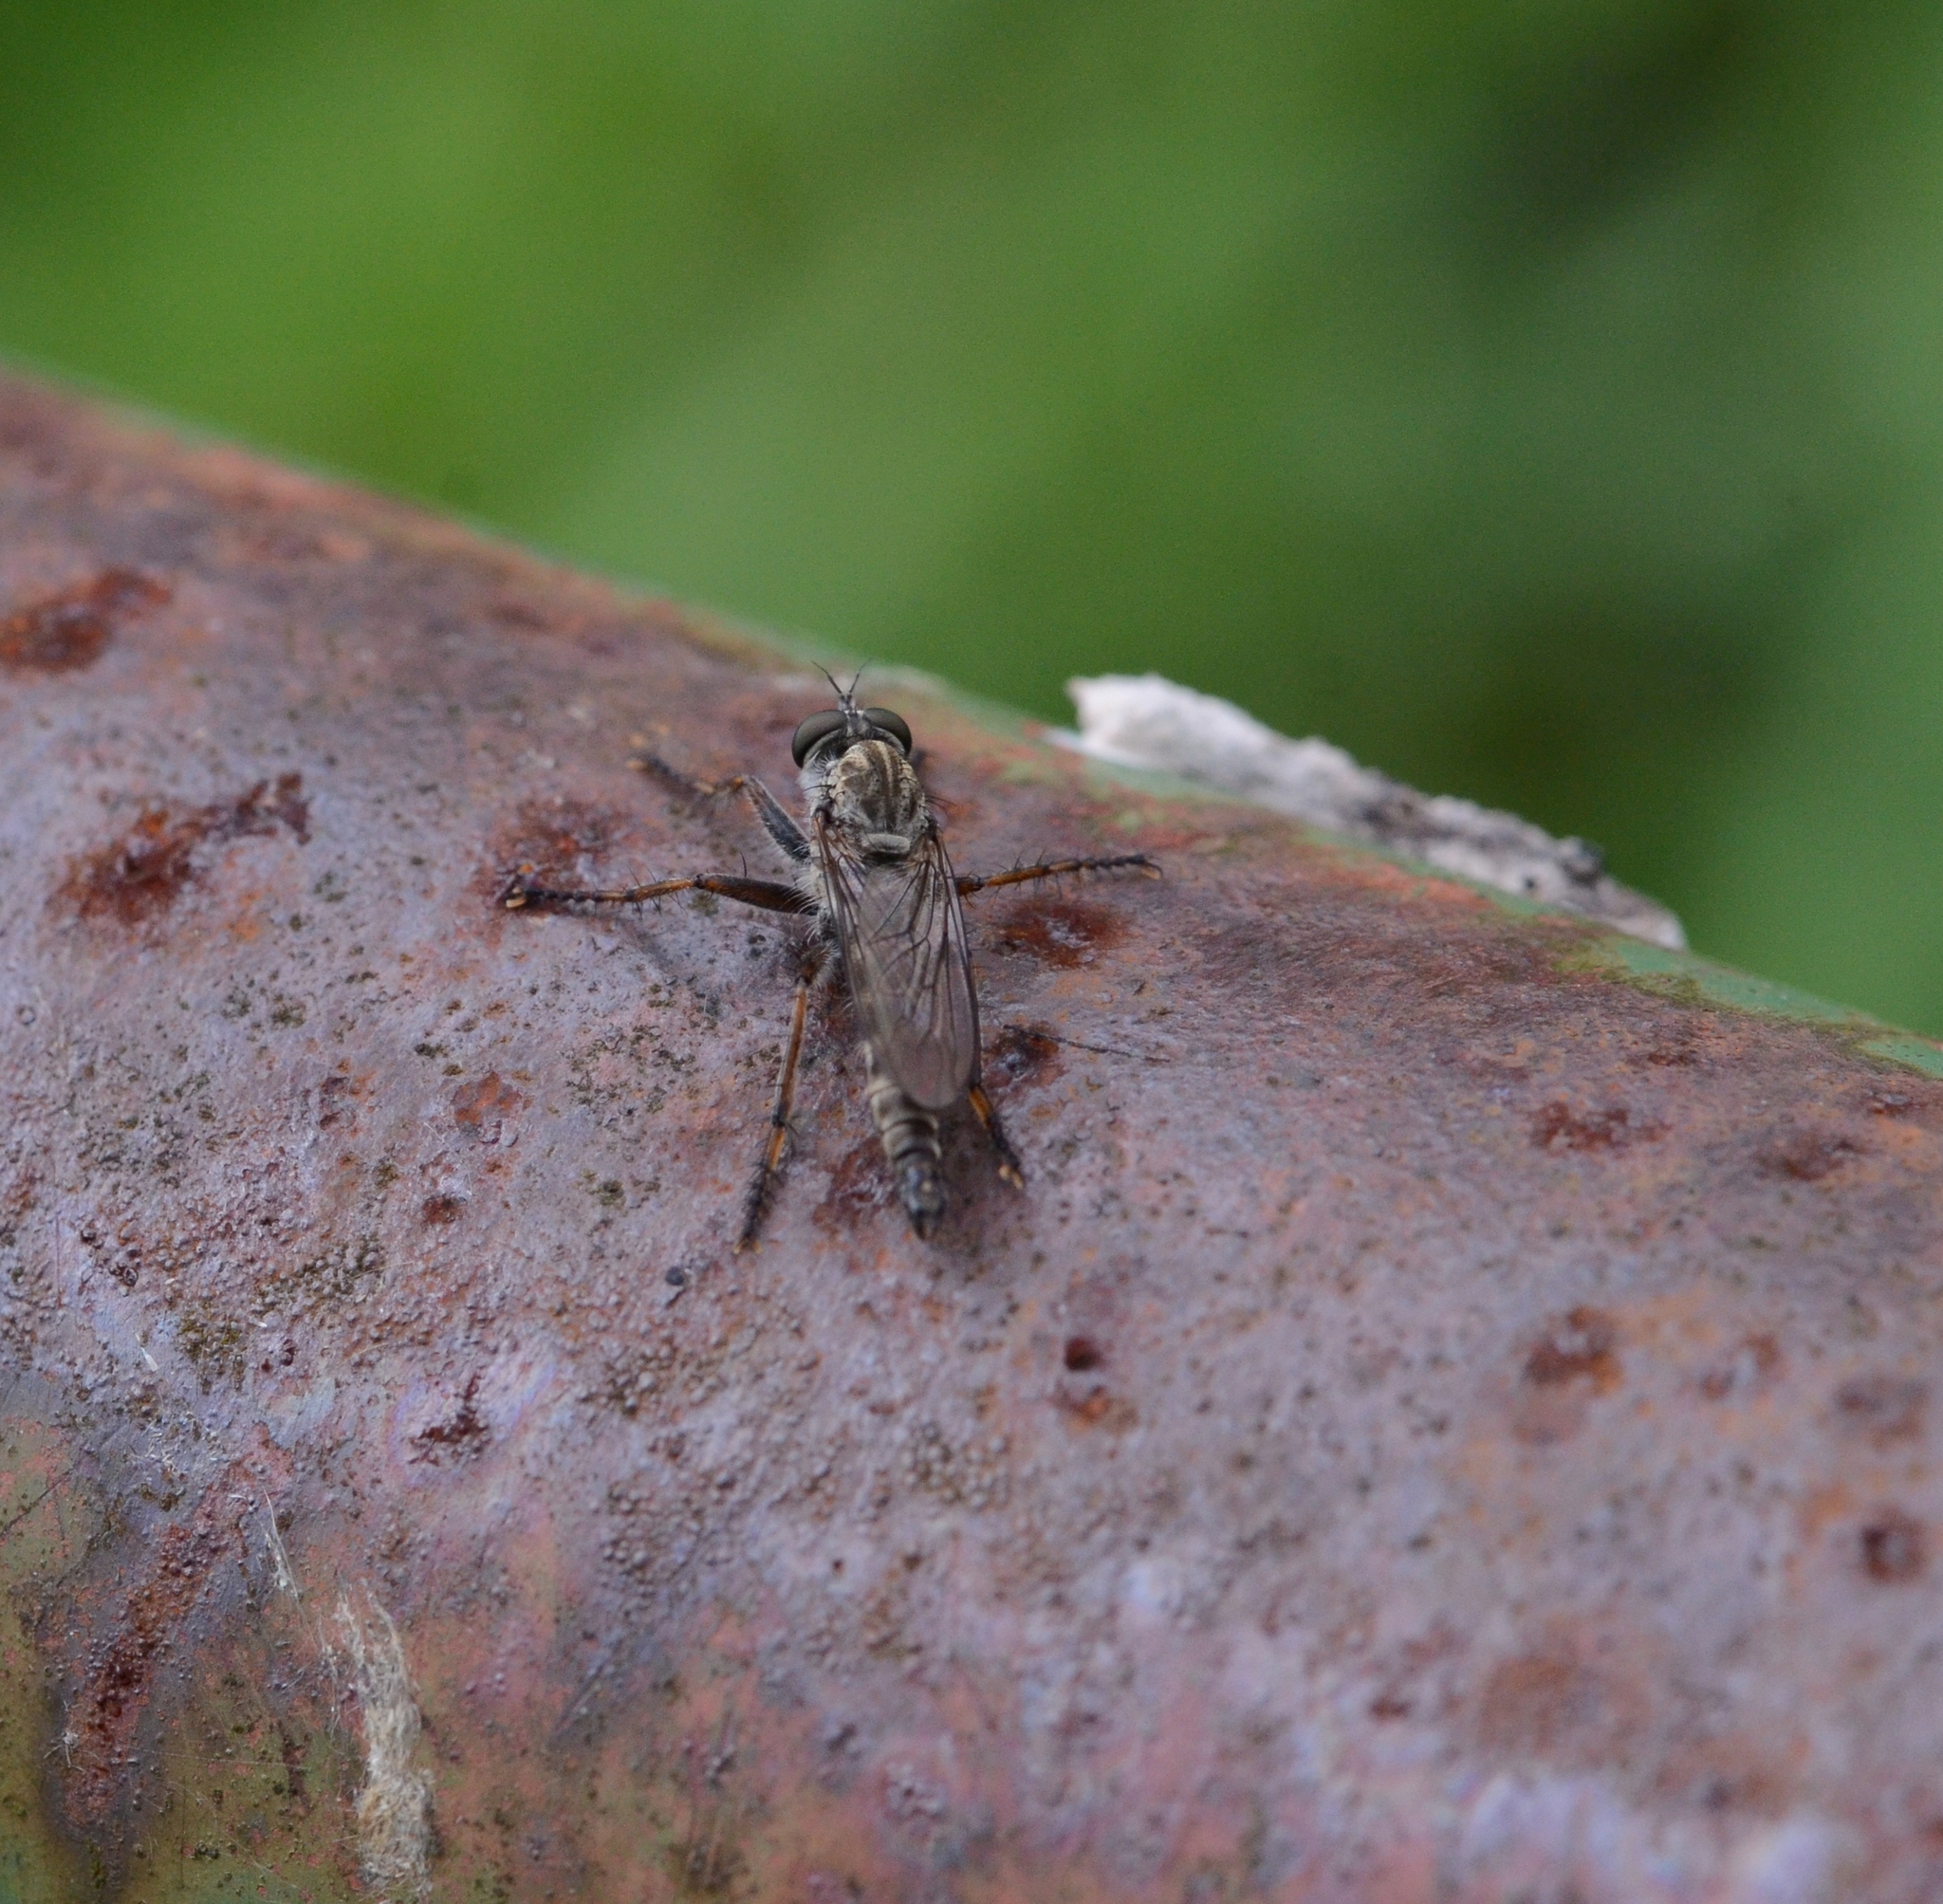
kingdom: Animalia
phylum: Arthropoda
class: Insecta
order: Diptera
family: Asilidae
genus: Machimus
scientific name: Machimus atricapillus
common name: Kite-tailed robberfly
